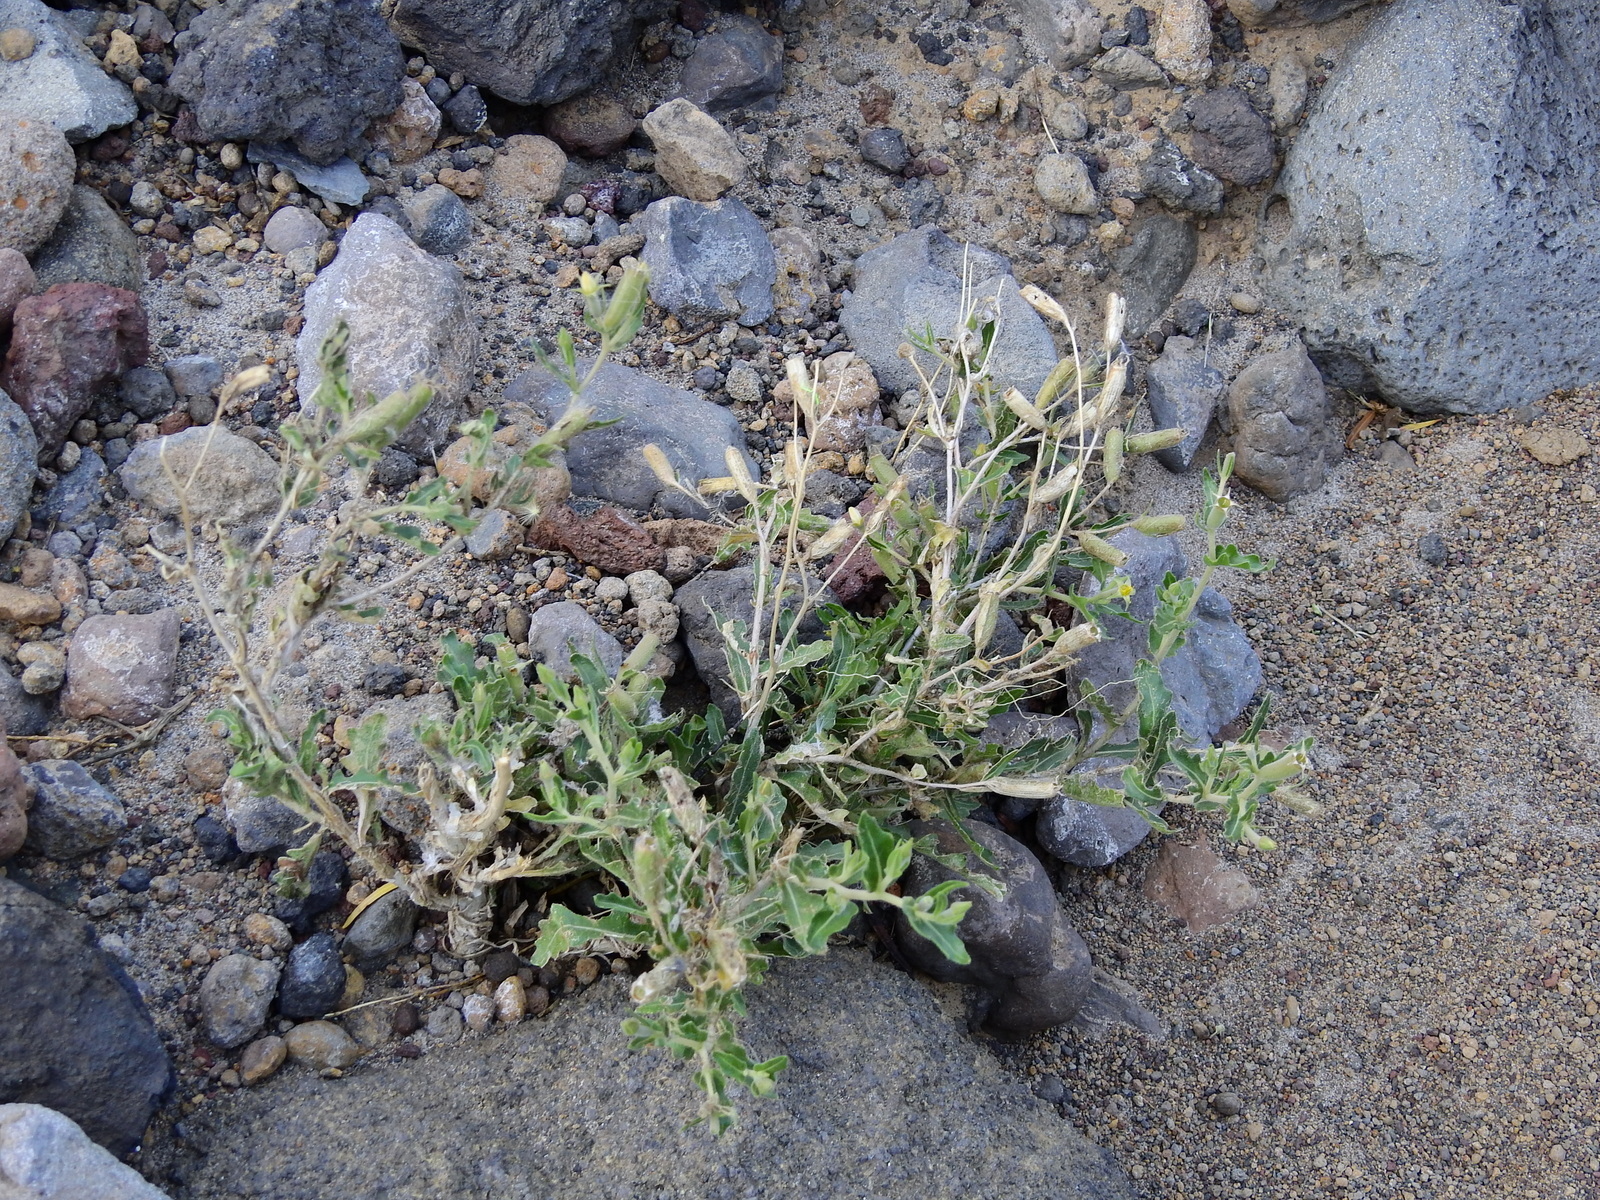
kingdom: Plantae
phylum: Tracheophyta
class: Magnoliopsida
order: Cornales
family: Loasaceae
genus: Mentzelia
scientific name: Mentzelia albescens
